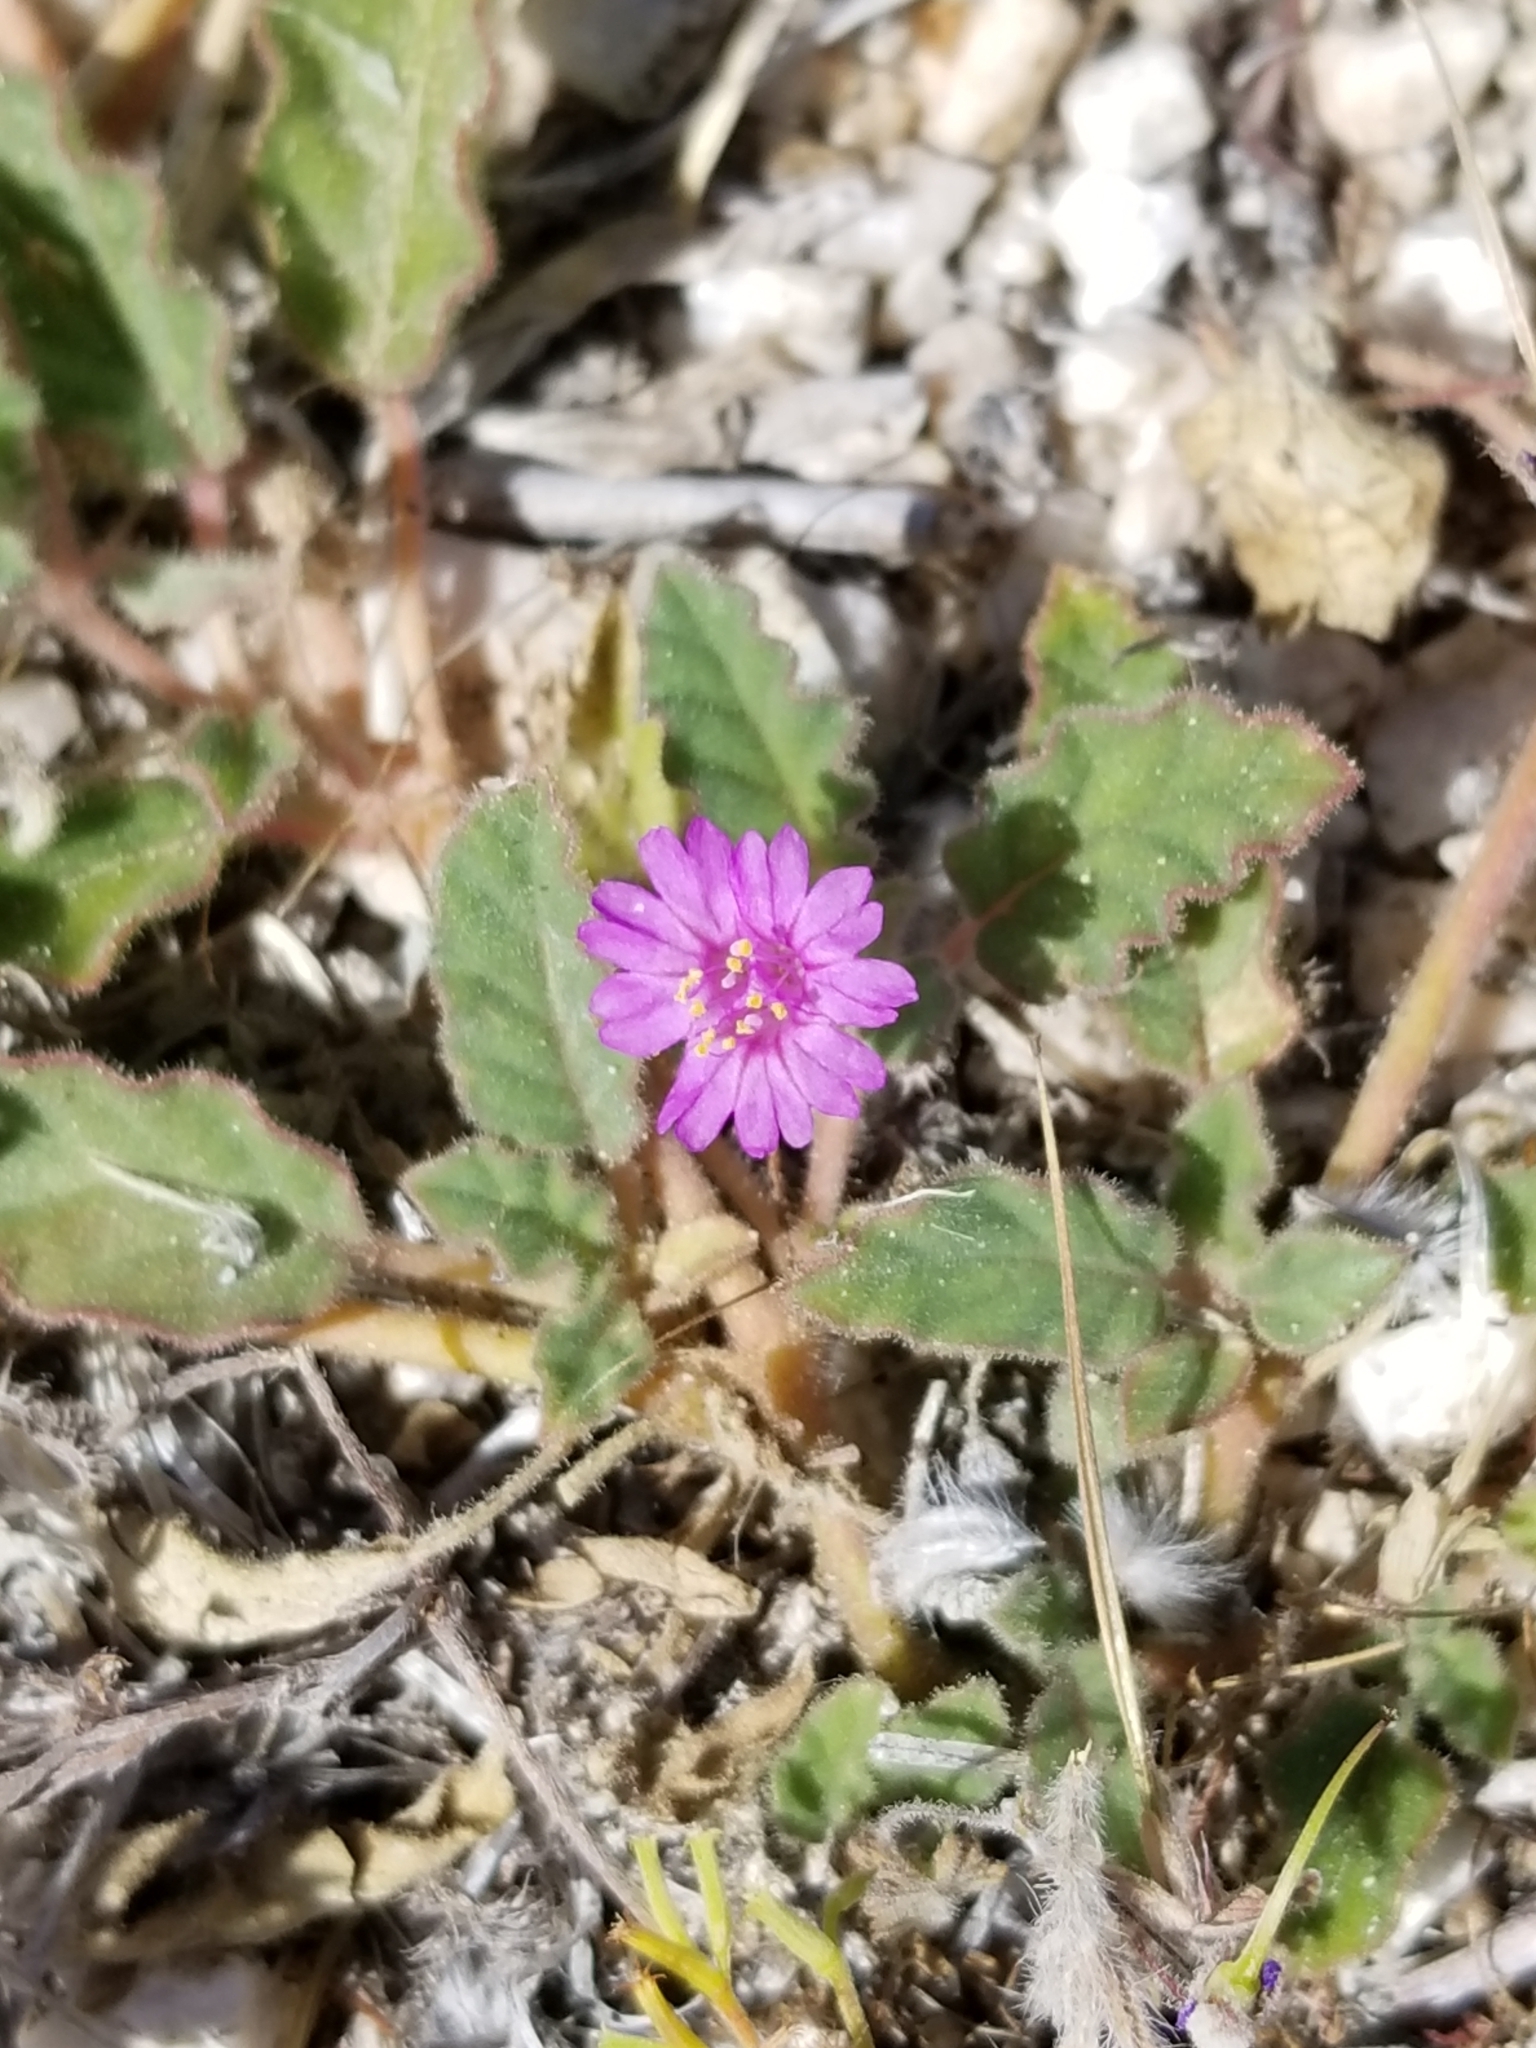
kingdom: Plantae
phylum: Tracheophyta
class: Magnoliopsida
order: Caryophyllales
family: Nyctaginaceae
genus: Allionia
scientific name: Allionia incarnata
